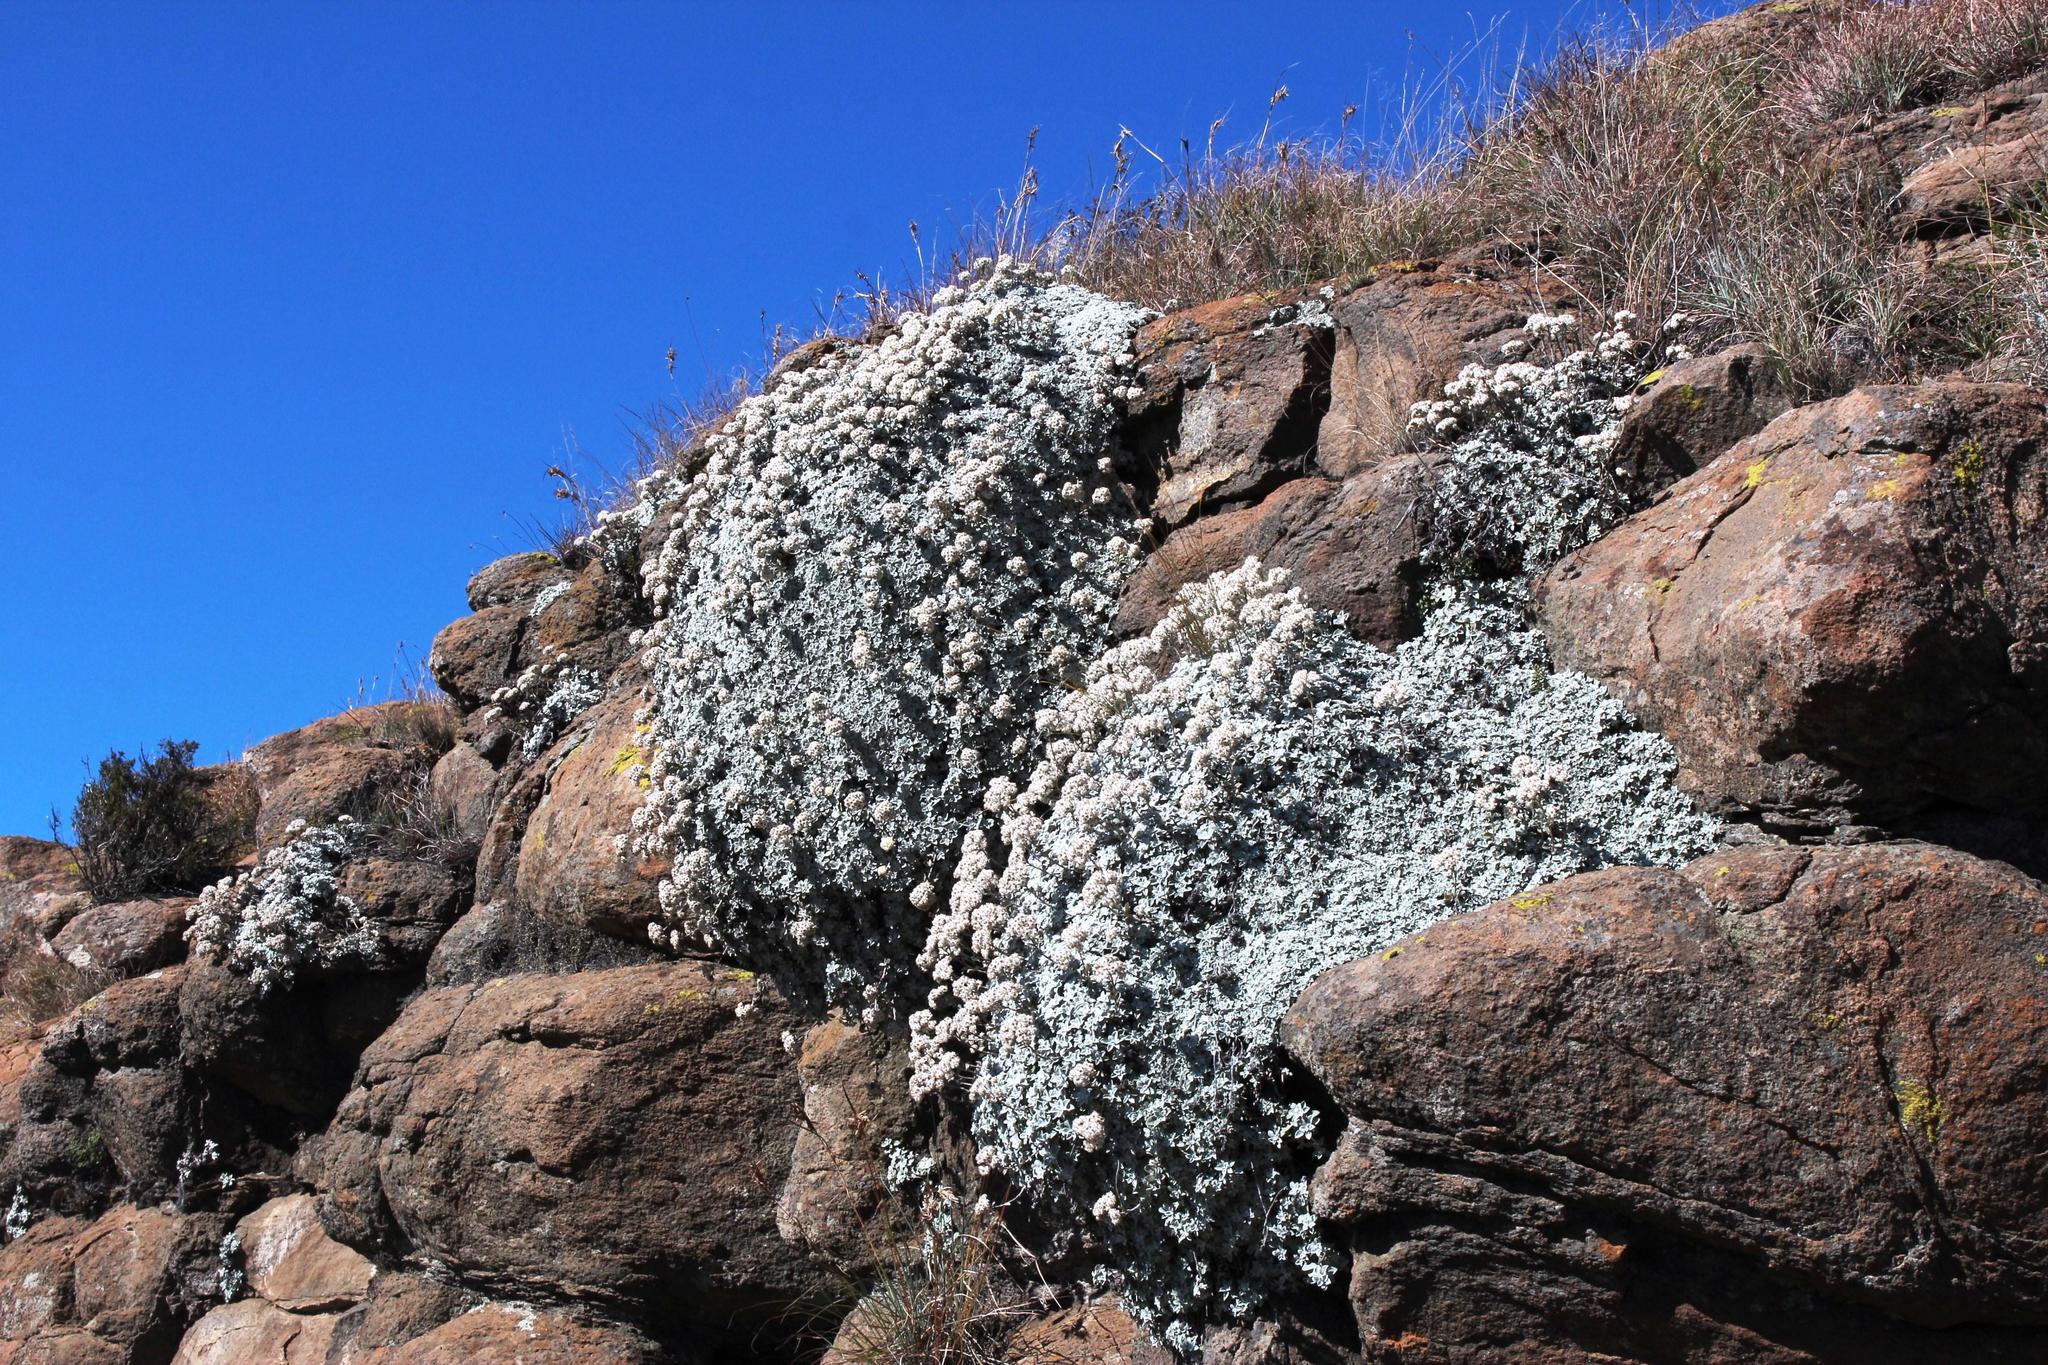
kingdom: Plantae
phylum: Tracheophyta
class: Magnoliopsida
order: Asterales
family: Asteraceae
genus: Helichrysum
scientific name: Helichrysum sutherlandii
